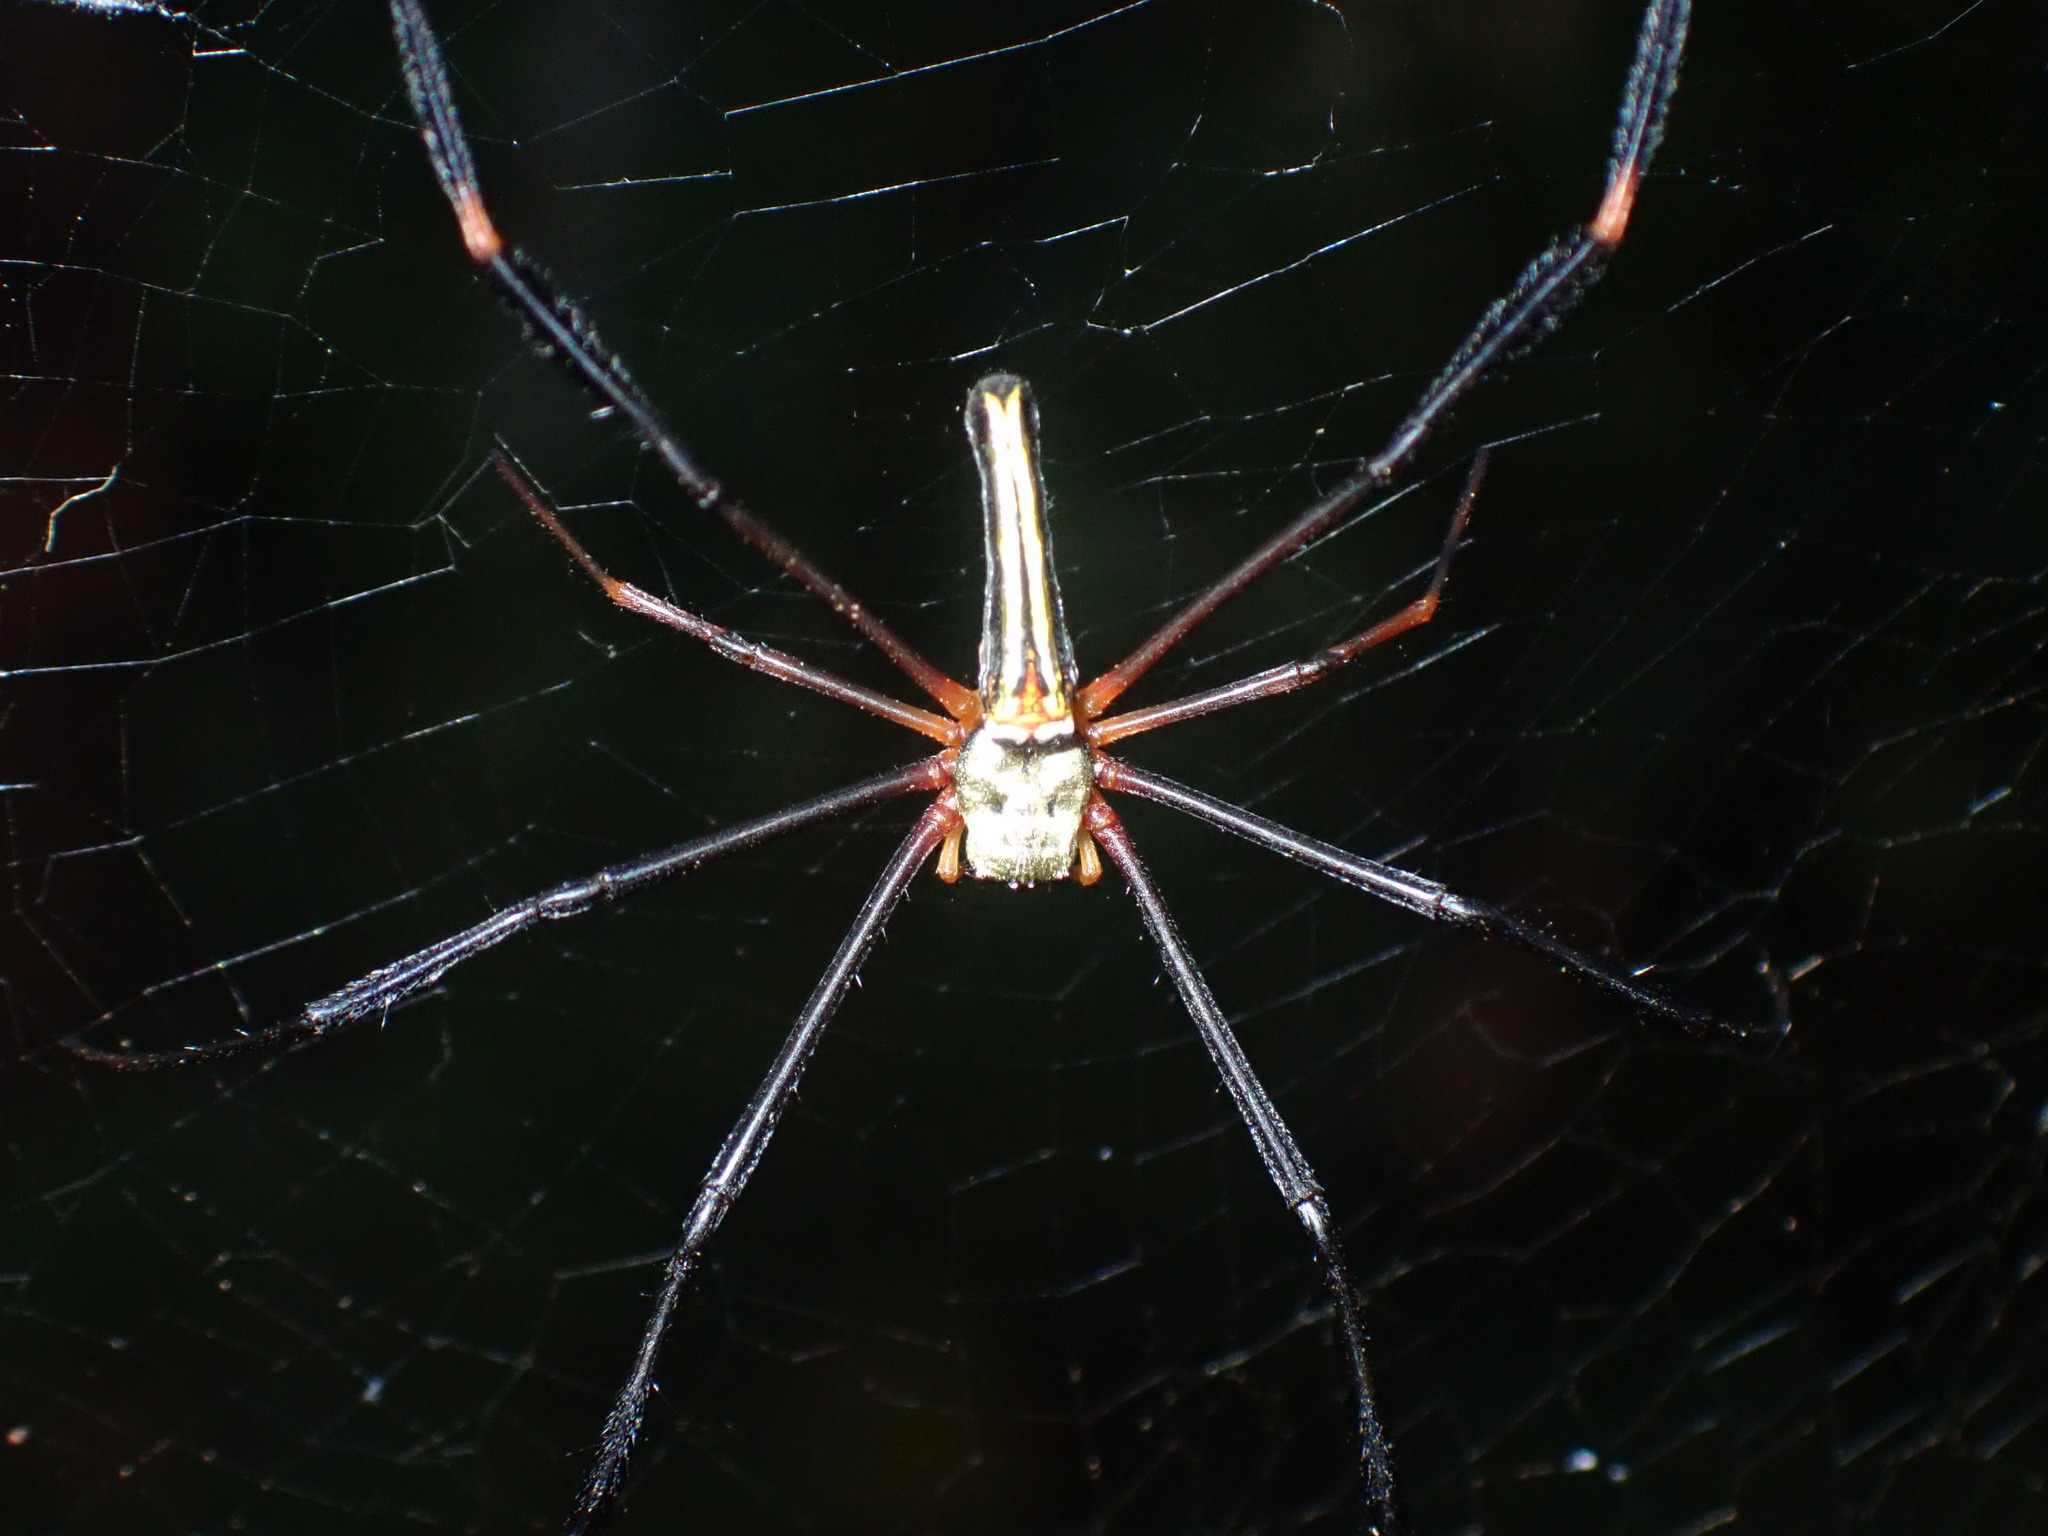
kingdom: Animalia
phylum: Arthropoda
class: Arachnida
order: Araneae
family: Araneidae
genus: Nephila
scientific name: Nephila pilipes
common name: Giant golden orb weaver
